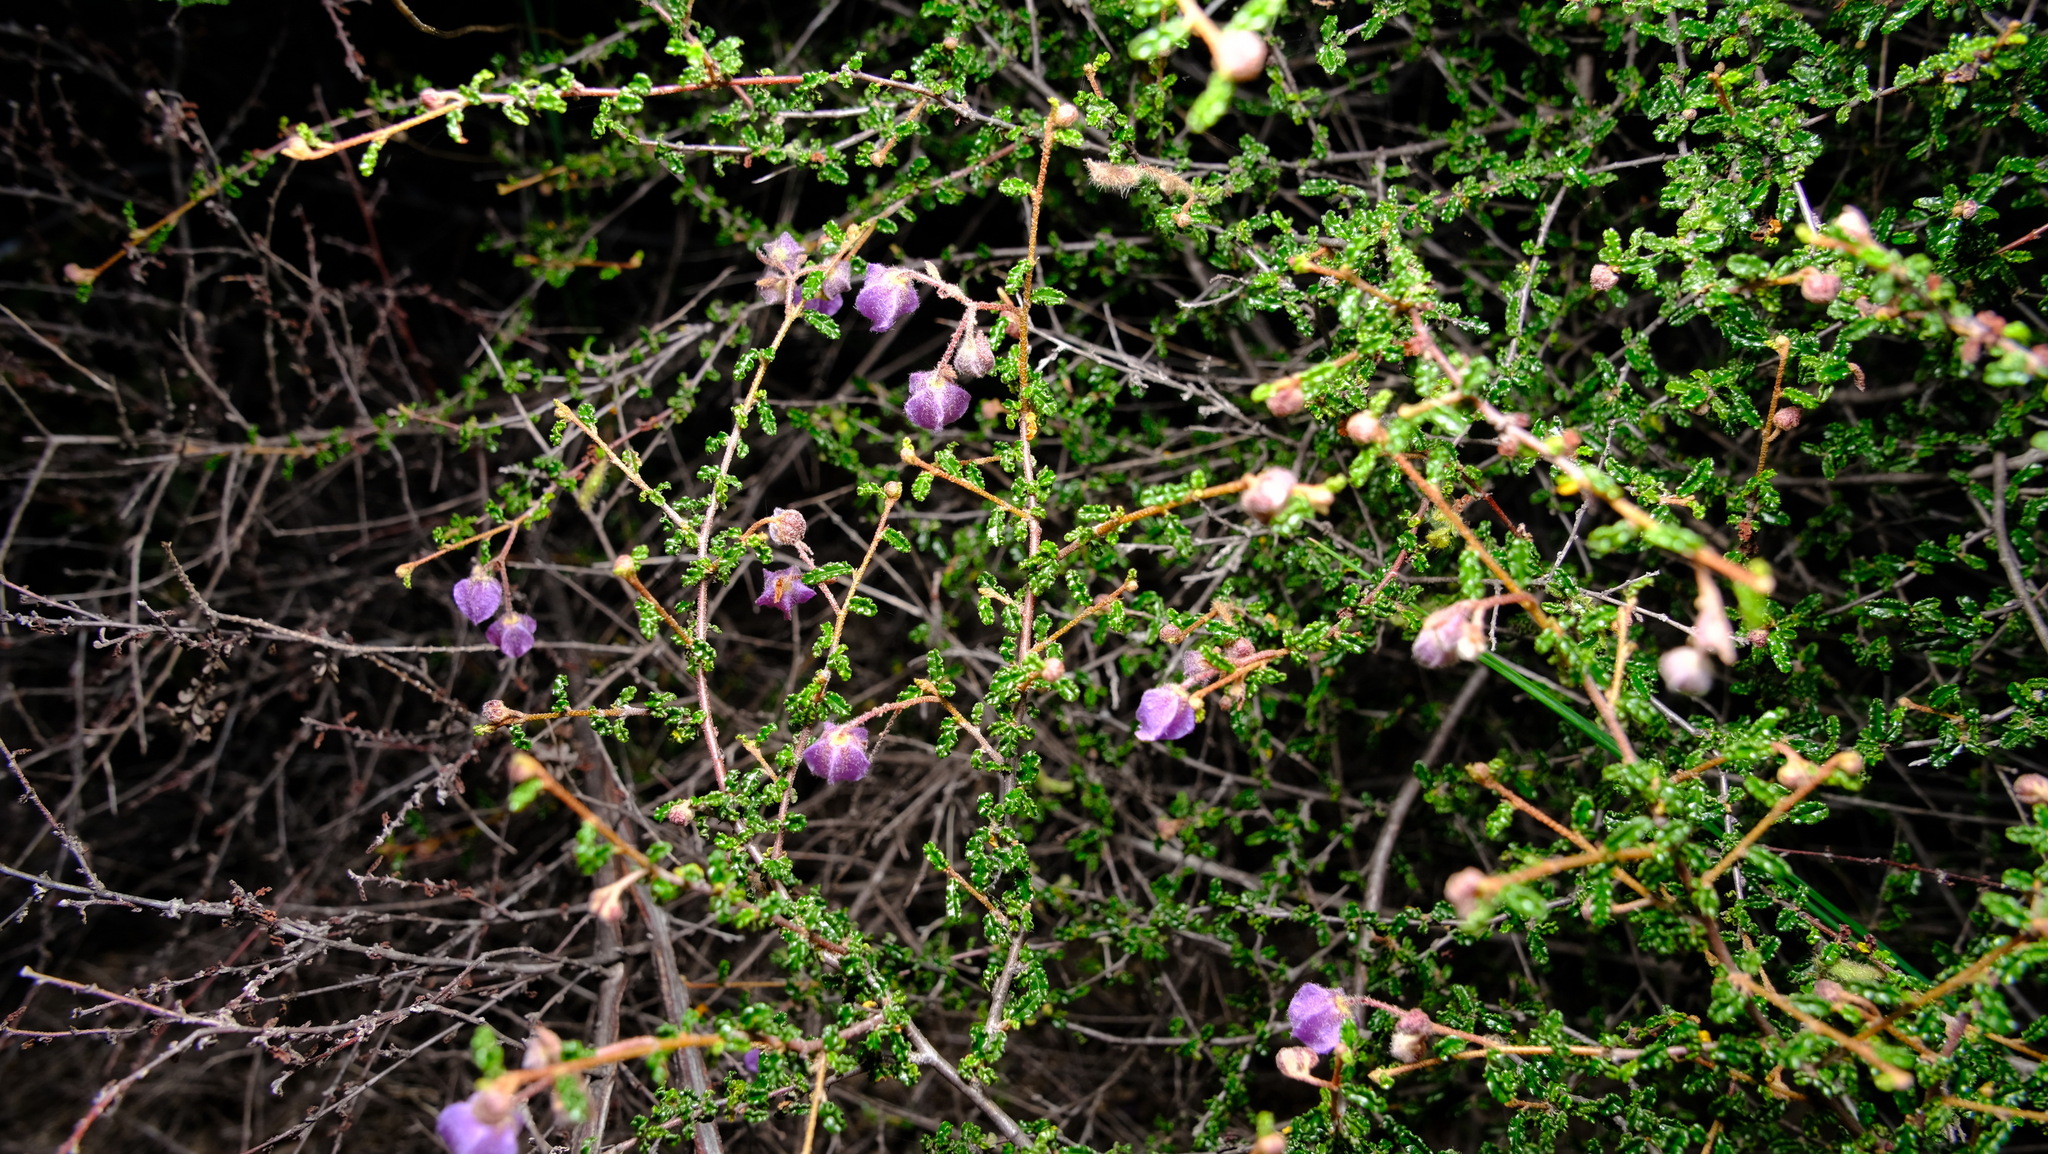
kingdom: Plantae
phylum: Tracheophyta
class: Magnoliopsida
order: Malvales
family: Malvaceae
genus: Seringia
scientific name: Seringia hermannifolia
